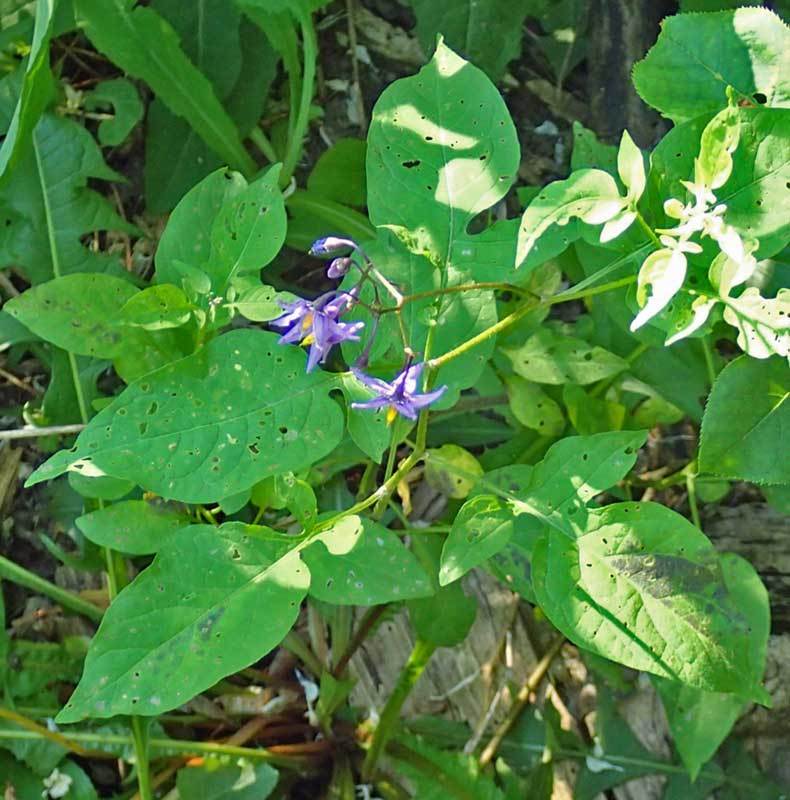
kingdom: Plantae
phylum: Tracheophyta
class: Magnoliopsida
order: Solanales
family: Solanaceae
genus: Solanum
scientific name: Solanum dulcamara
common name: Climbing nightshade
